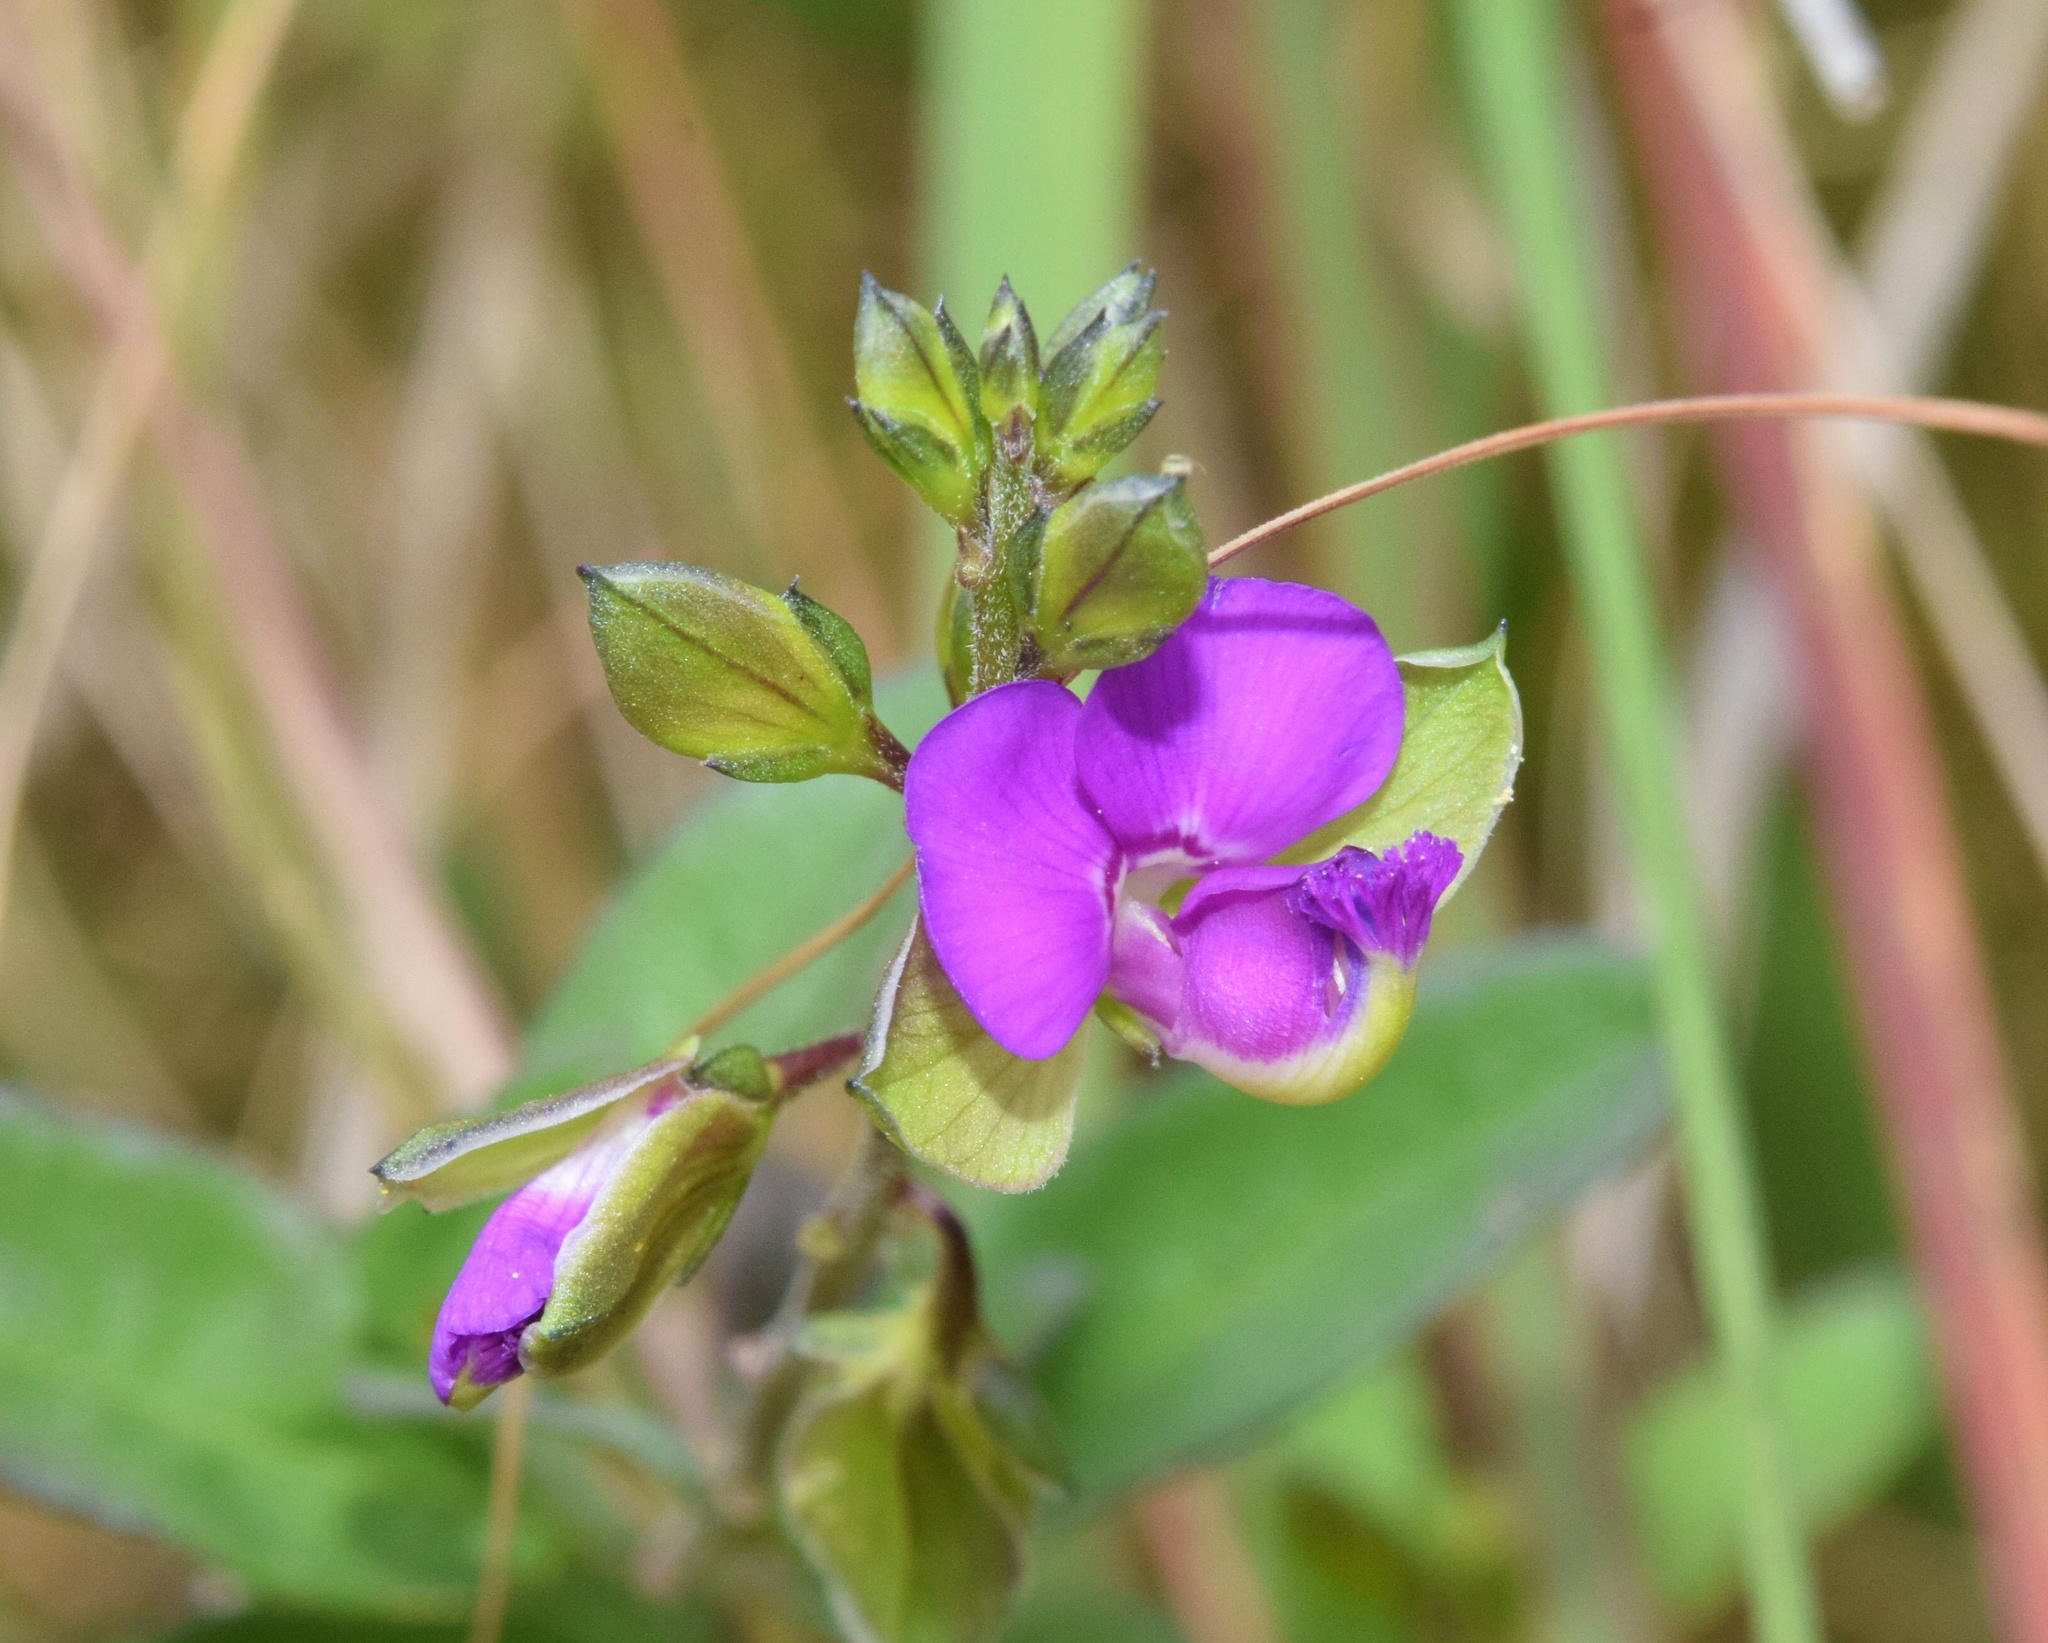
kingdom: Plantae
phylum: Tracheophyta
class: Magnoliopsida
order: Fabales
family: Polygalaceae
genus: Polygala
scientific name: Polygala serpentaria
